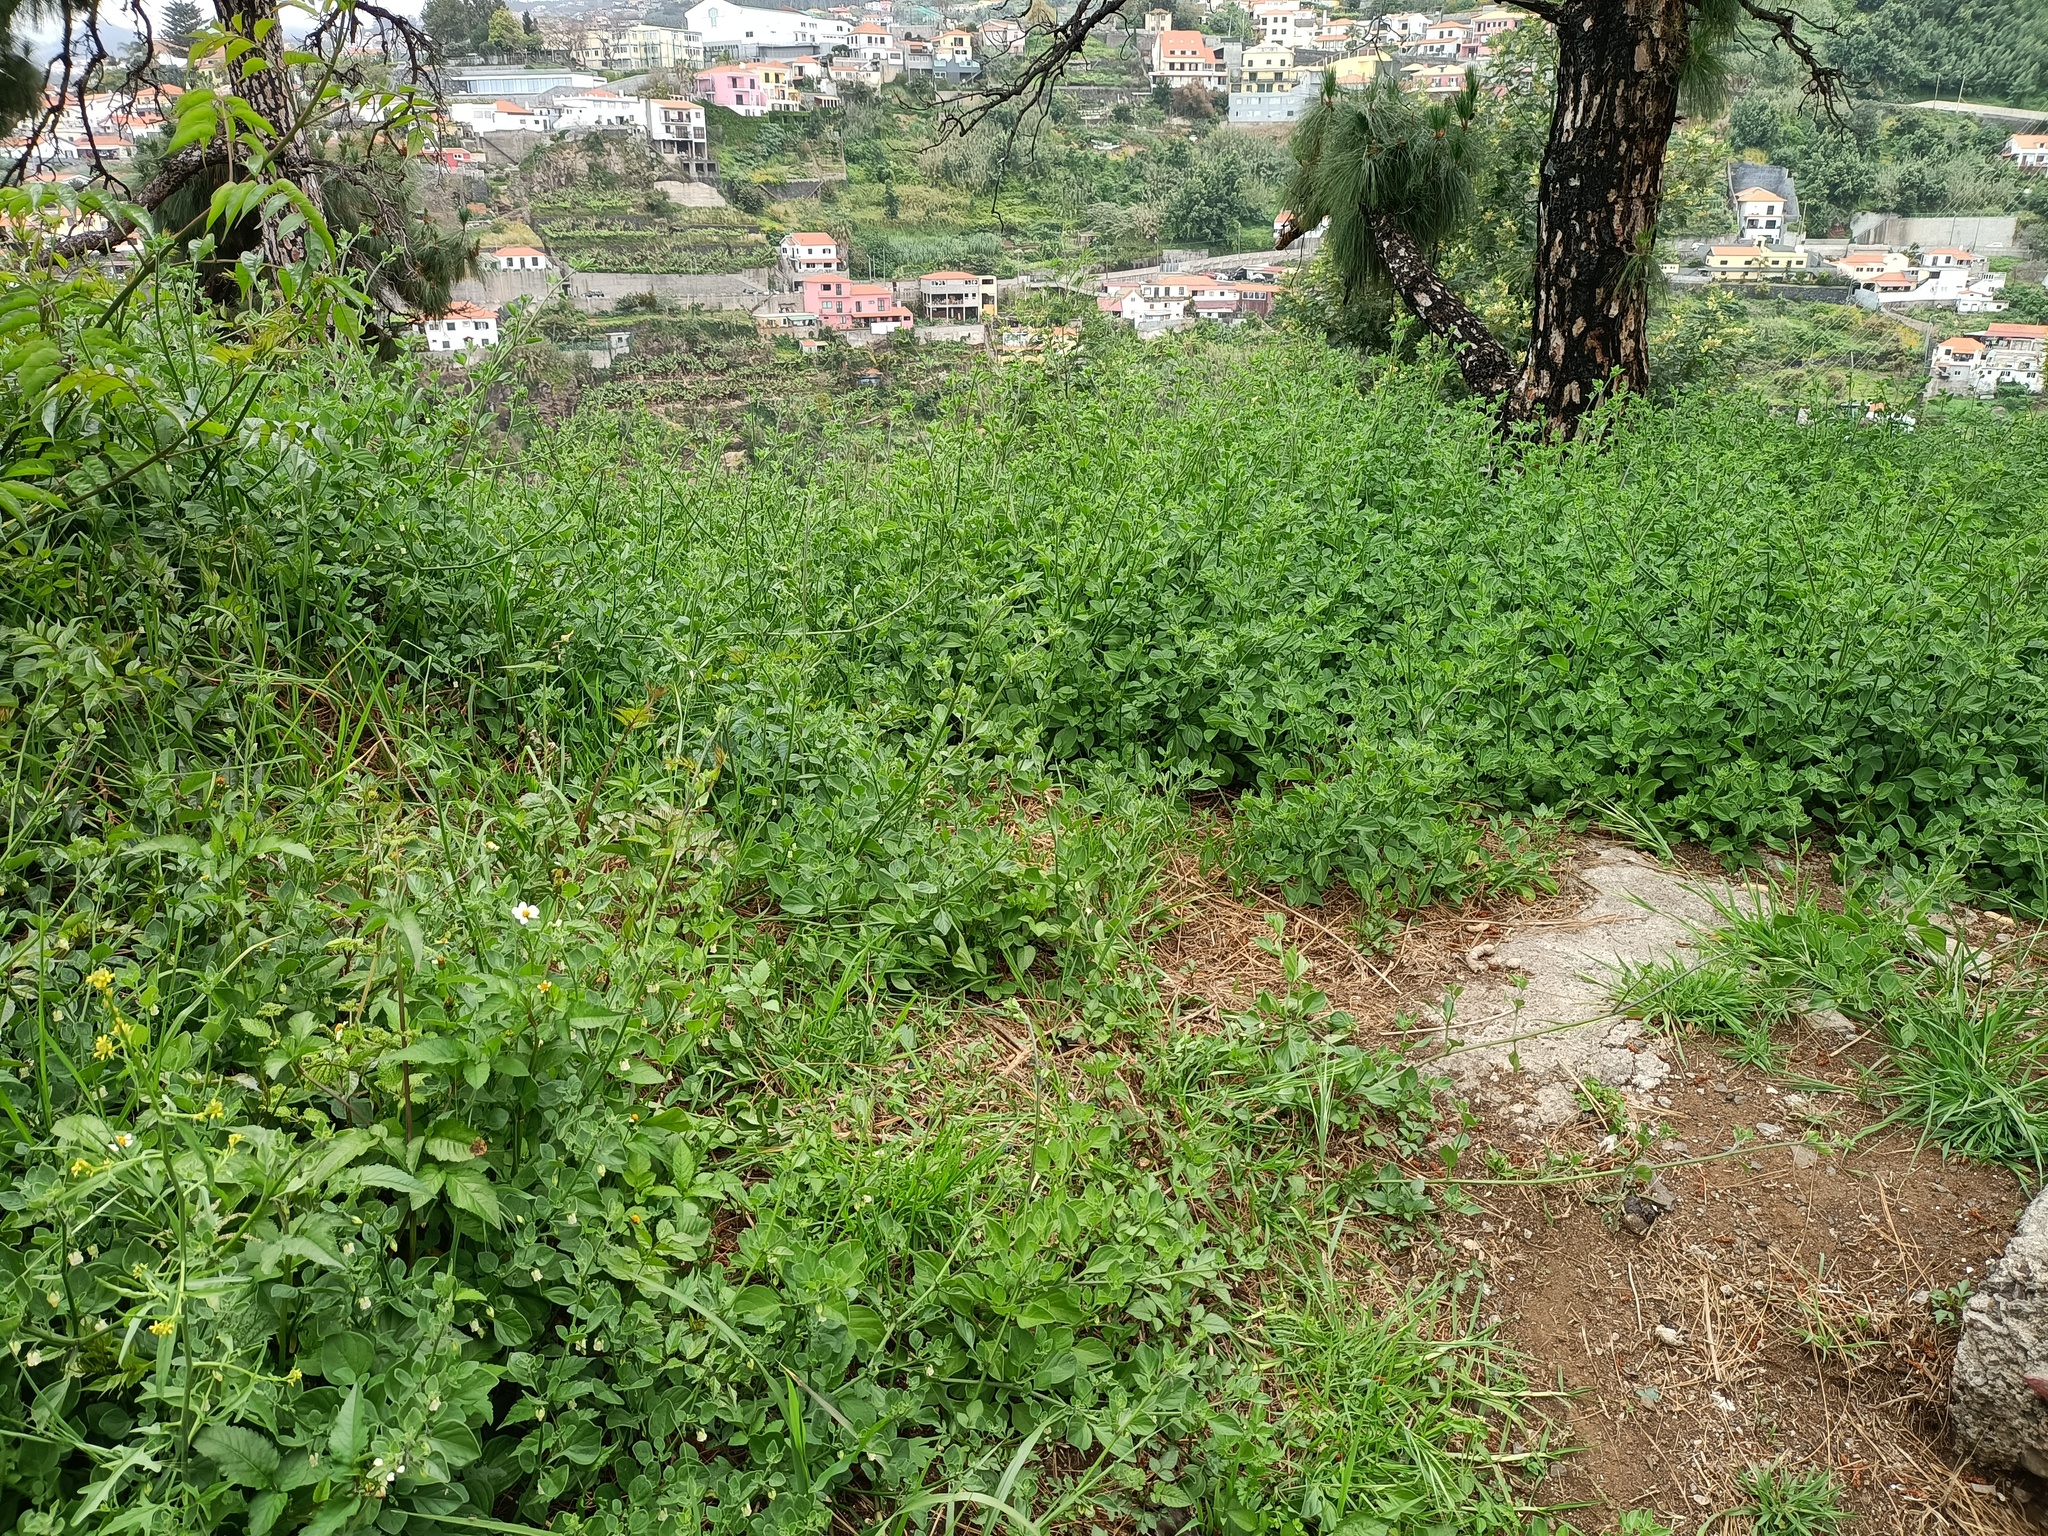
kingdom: Plantae
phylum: Tracheophyta
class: Magnoliopsida
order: Solanales
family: Solanaceae
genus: Salpichroa
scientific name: Salpichroa origanifolia
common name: Lily-of-the-valley-vine
